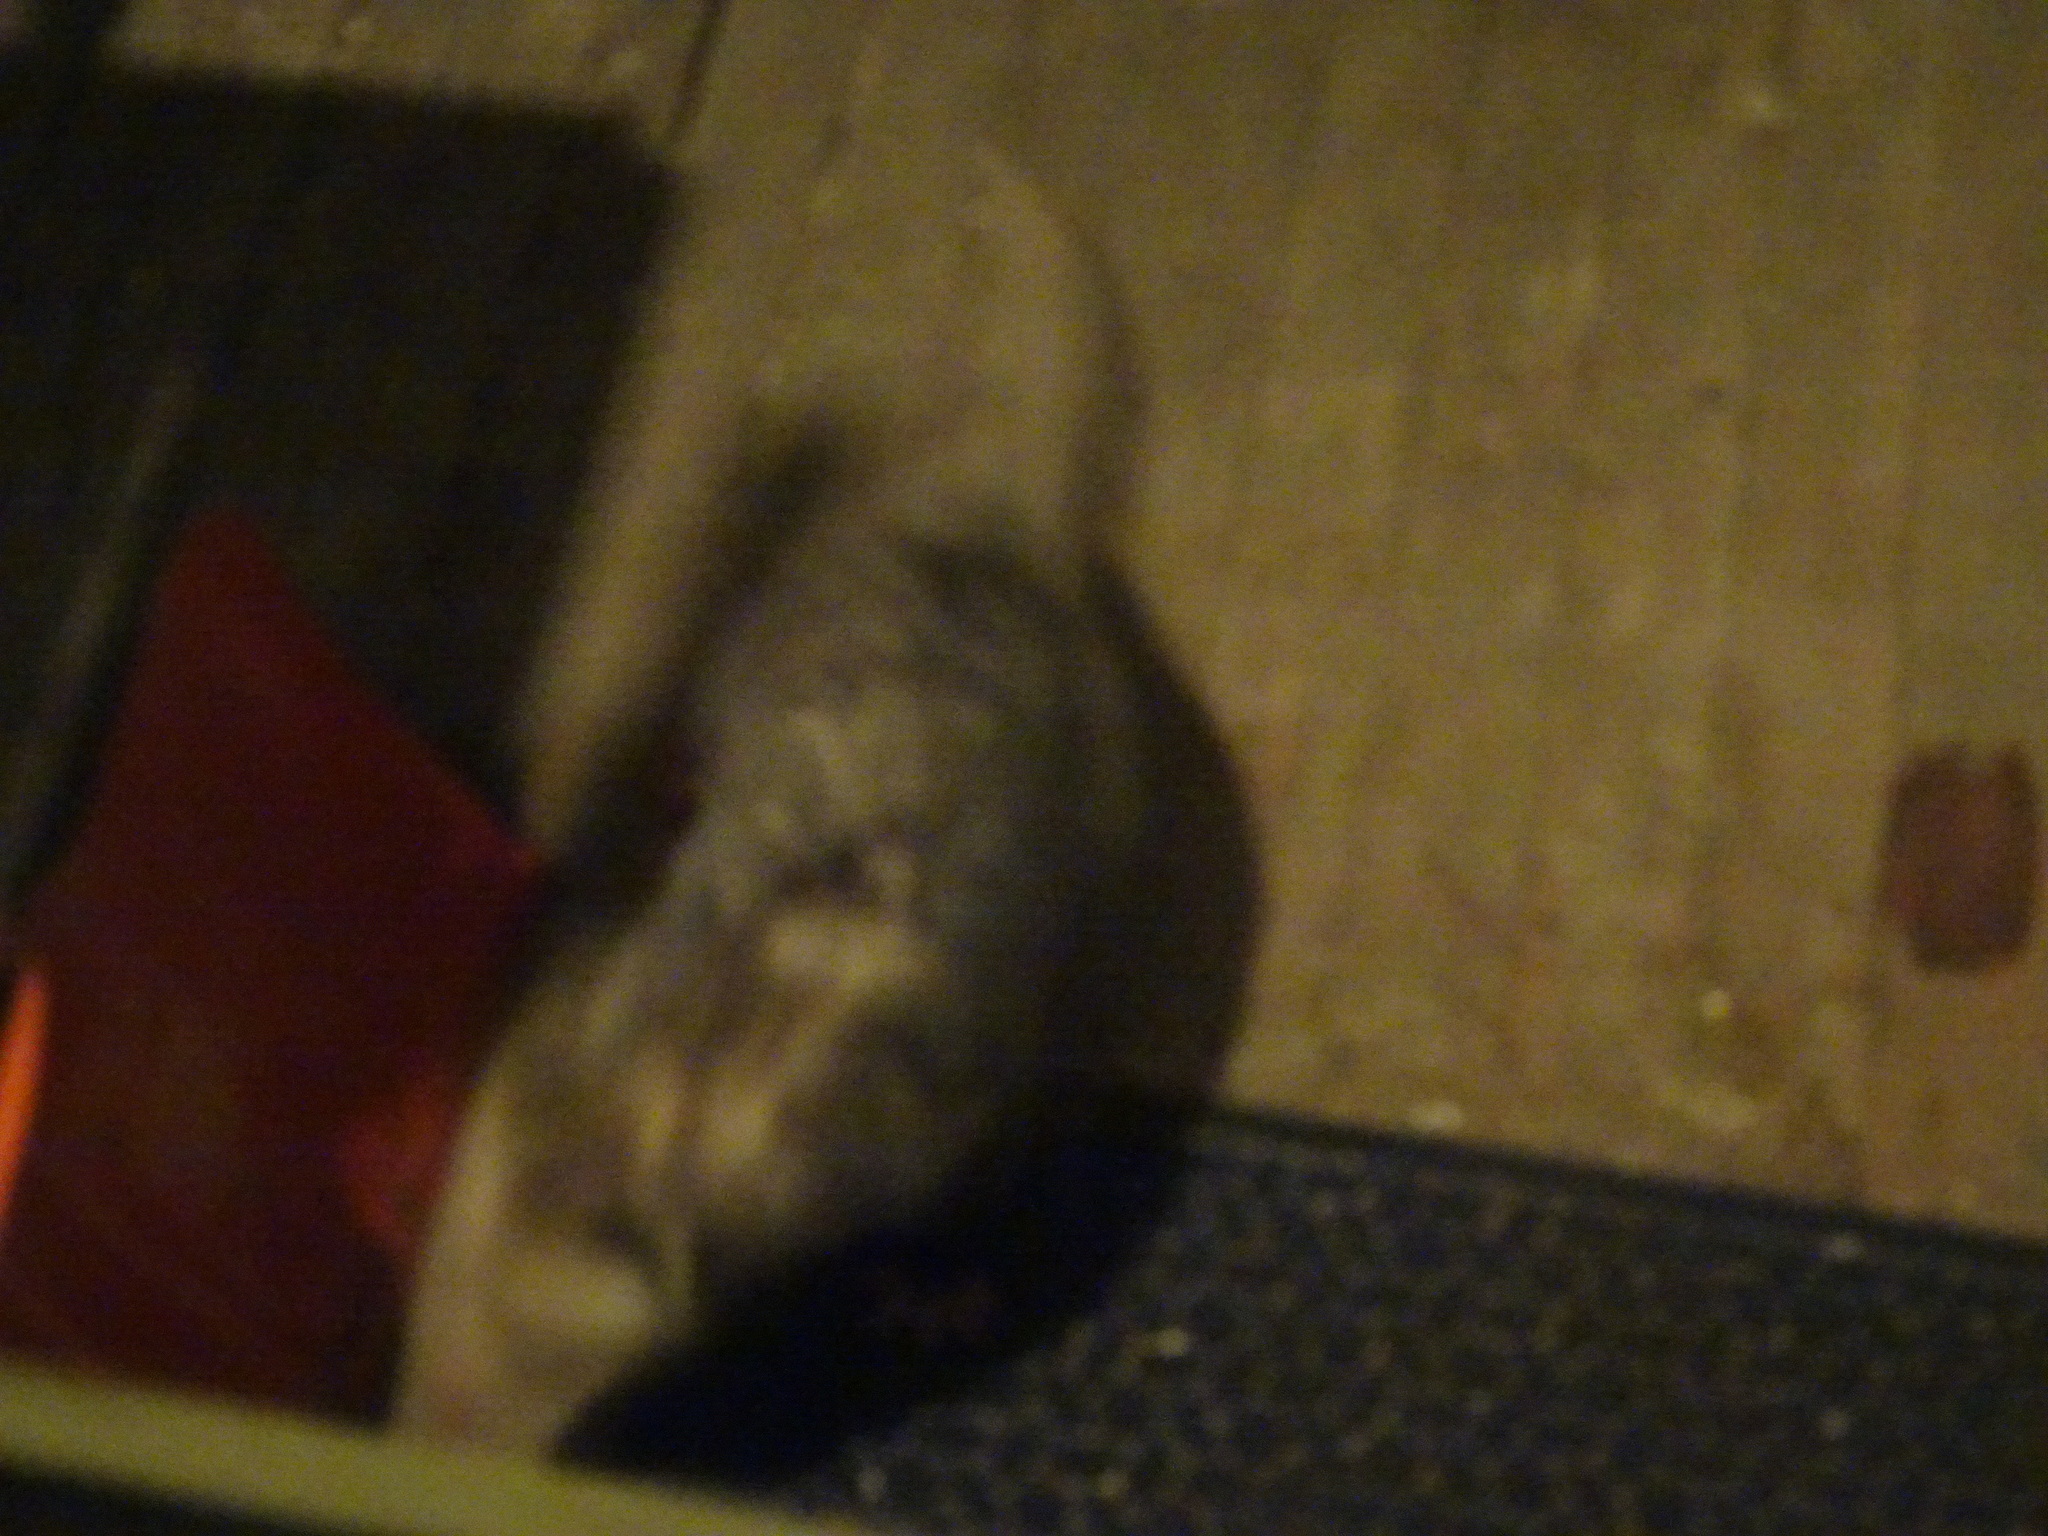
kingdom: Animalia
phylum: Chordata
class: Mammalia
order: Didelphimorphia
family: Didelphidae
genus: Didelphis
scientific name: Didelphis virginiana
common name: Virginia opossum
